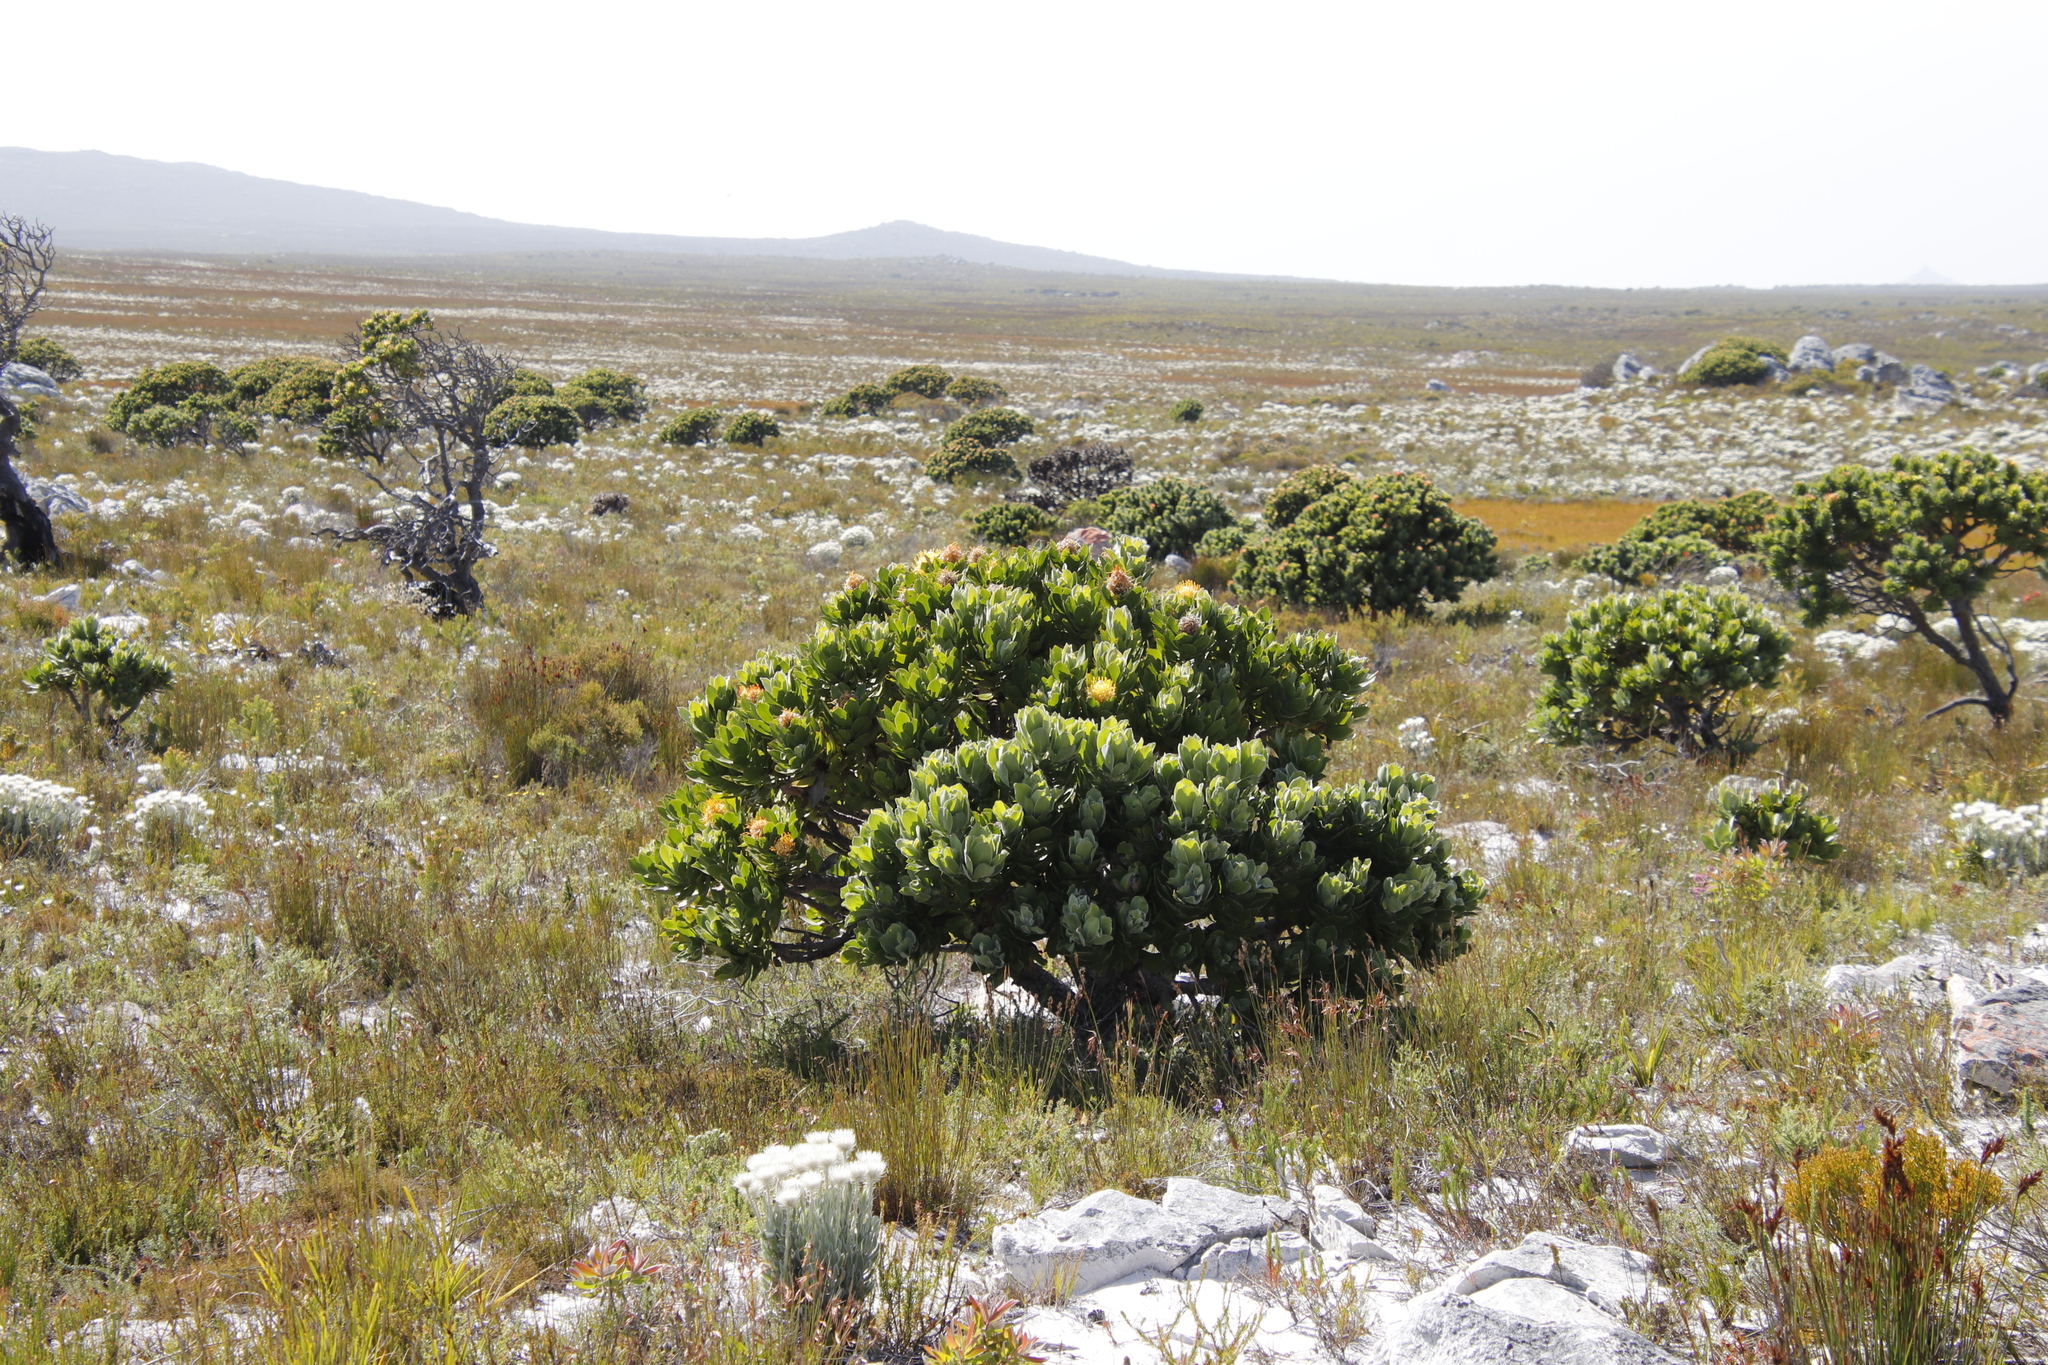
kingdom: Plantae
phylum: Tracheophyta
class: Magnoliopsida
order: Proteales
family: Proteaceae
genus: Leucospermum
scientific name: Leucospermum conocarpodendron
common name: Tree pincushion
